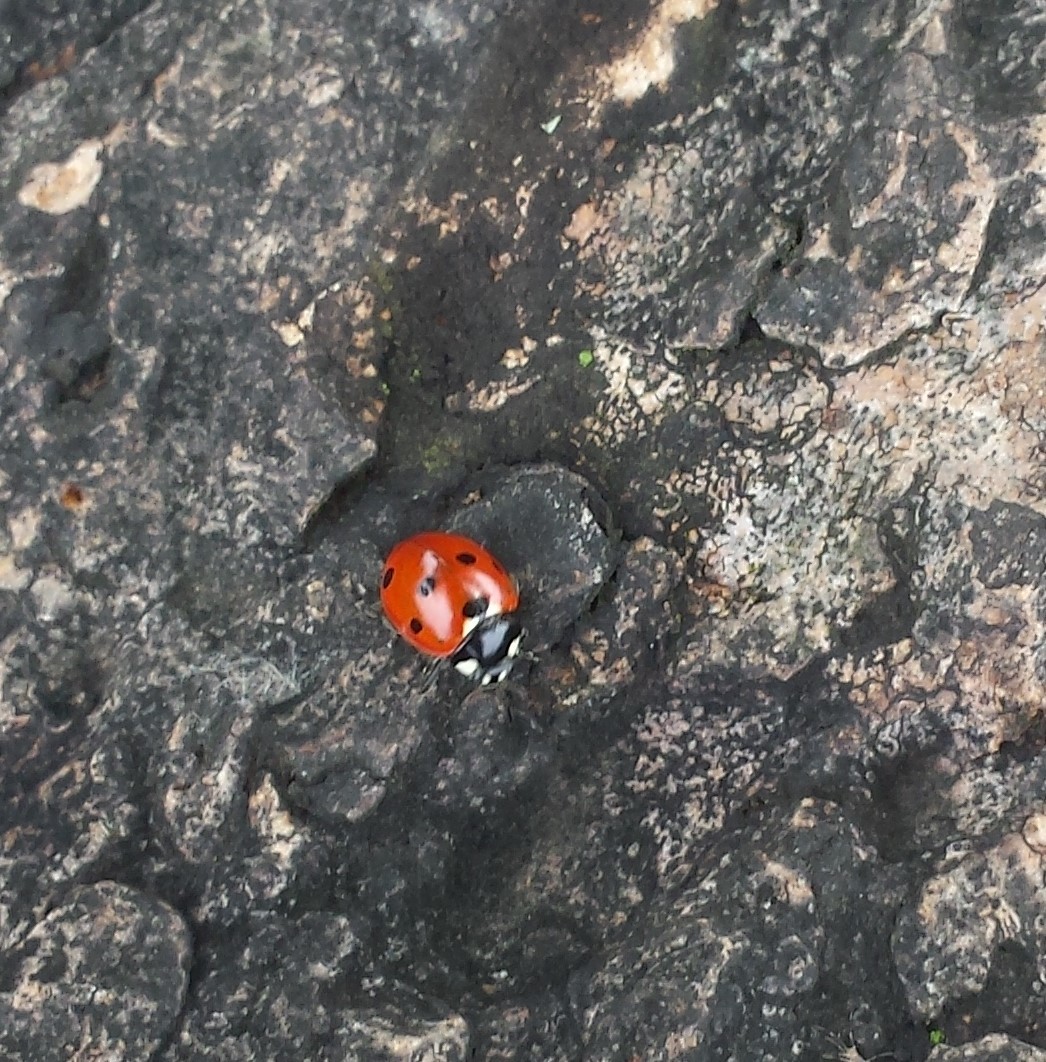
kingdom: Animalia
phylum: Arthropoda
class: Insecta
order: Coleoptera
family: Coccinellidae
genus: Coccinella
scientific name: Coccinella septempunctata
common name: Sevenspotted lady beetle
